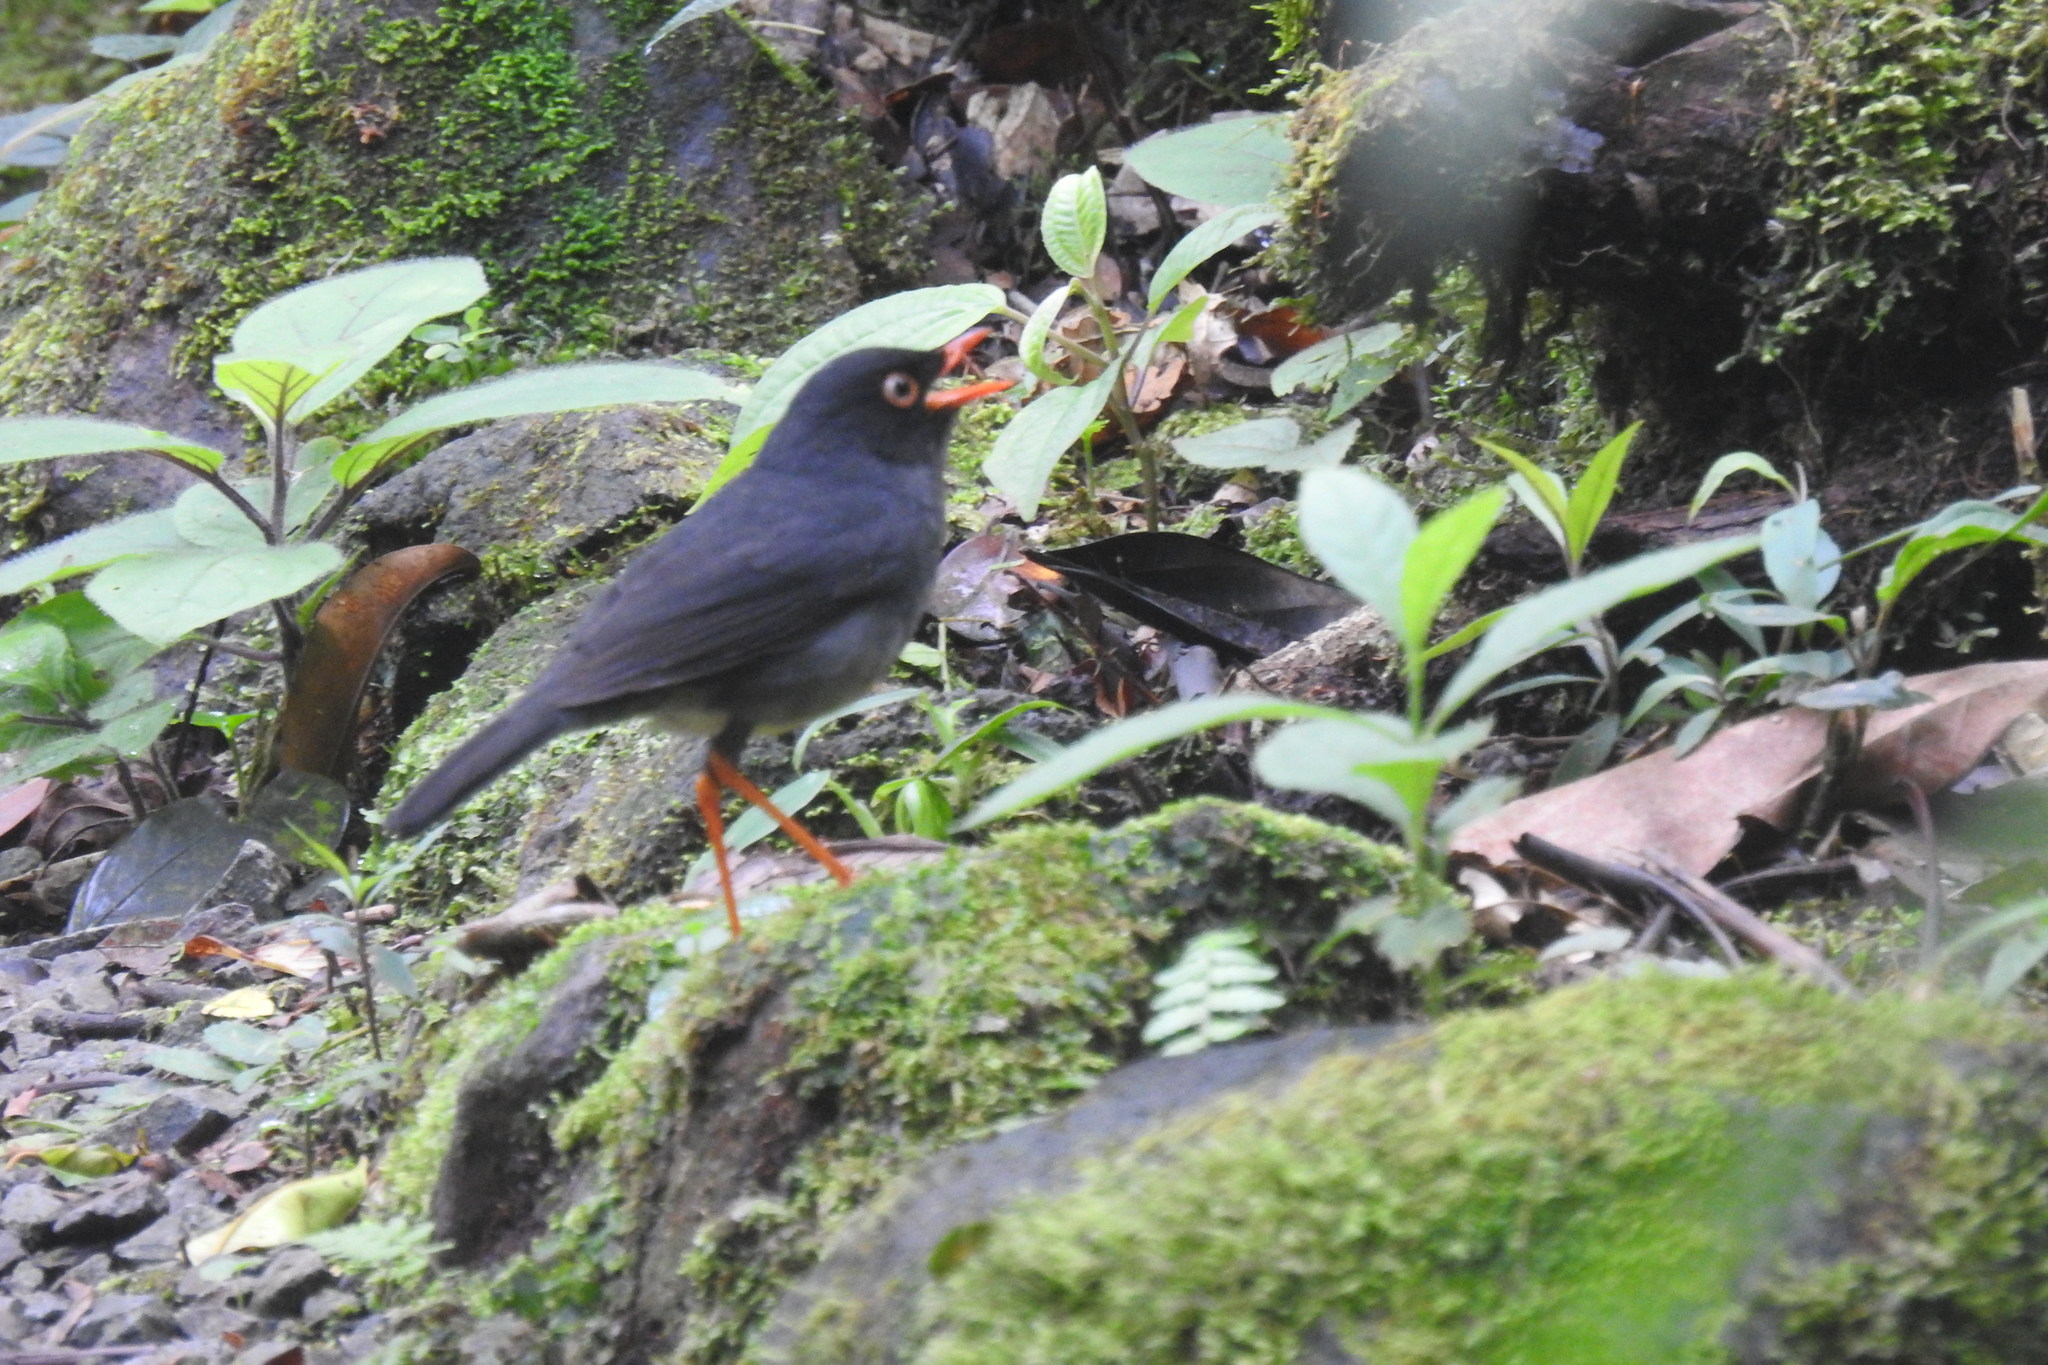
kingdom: Animalia
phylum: Chordata
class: Aves
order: Passeriformes
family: Turdidae
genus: Catharus
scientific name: Catharus fuscater
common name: Slaty-backed nightingale-thrush
